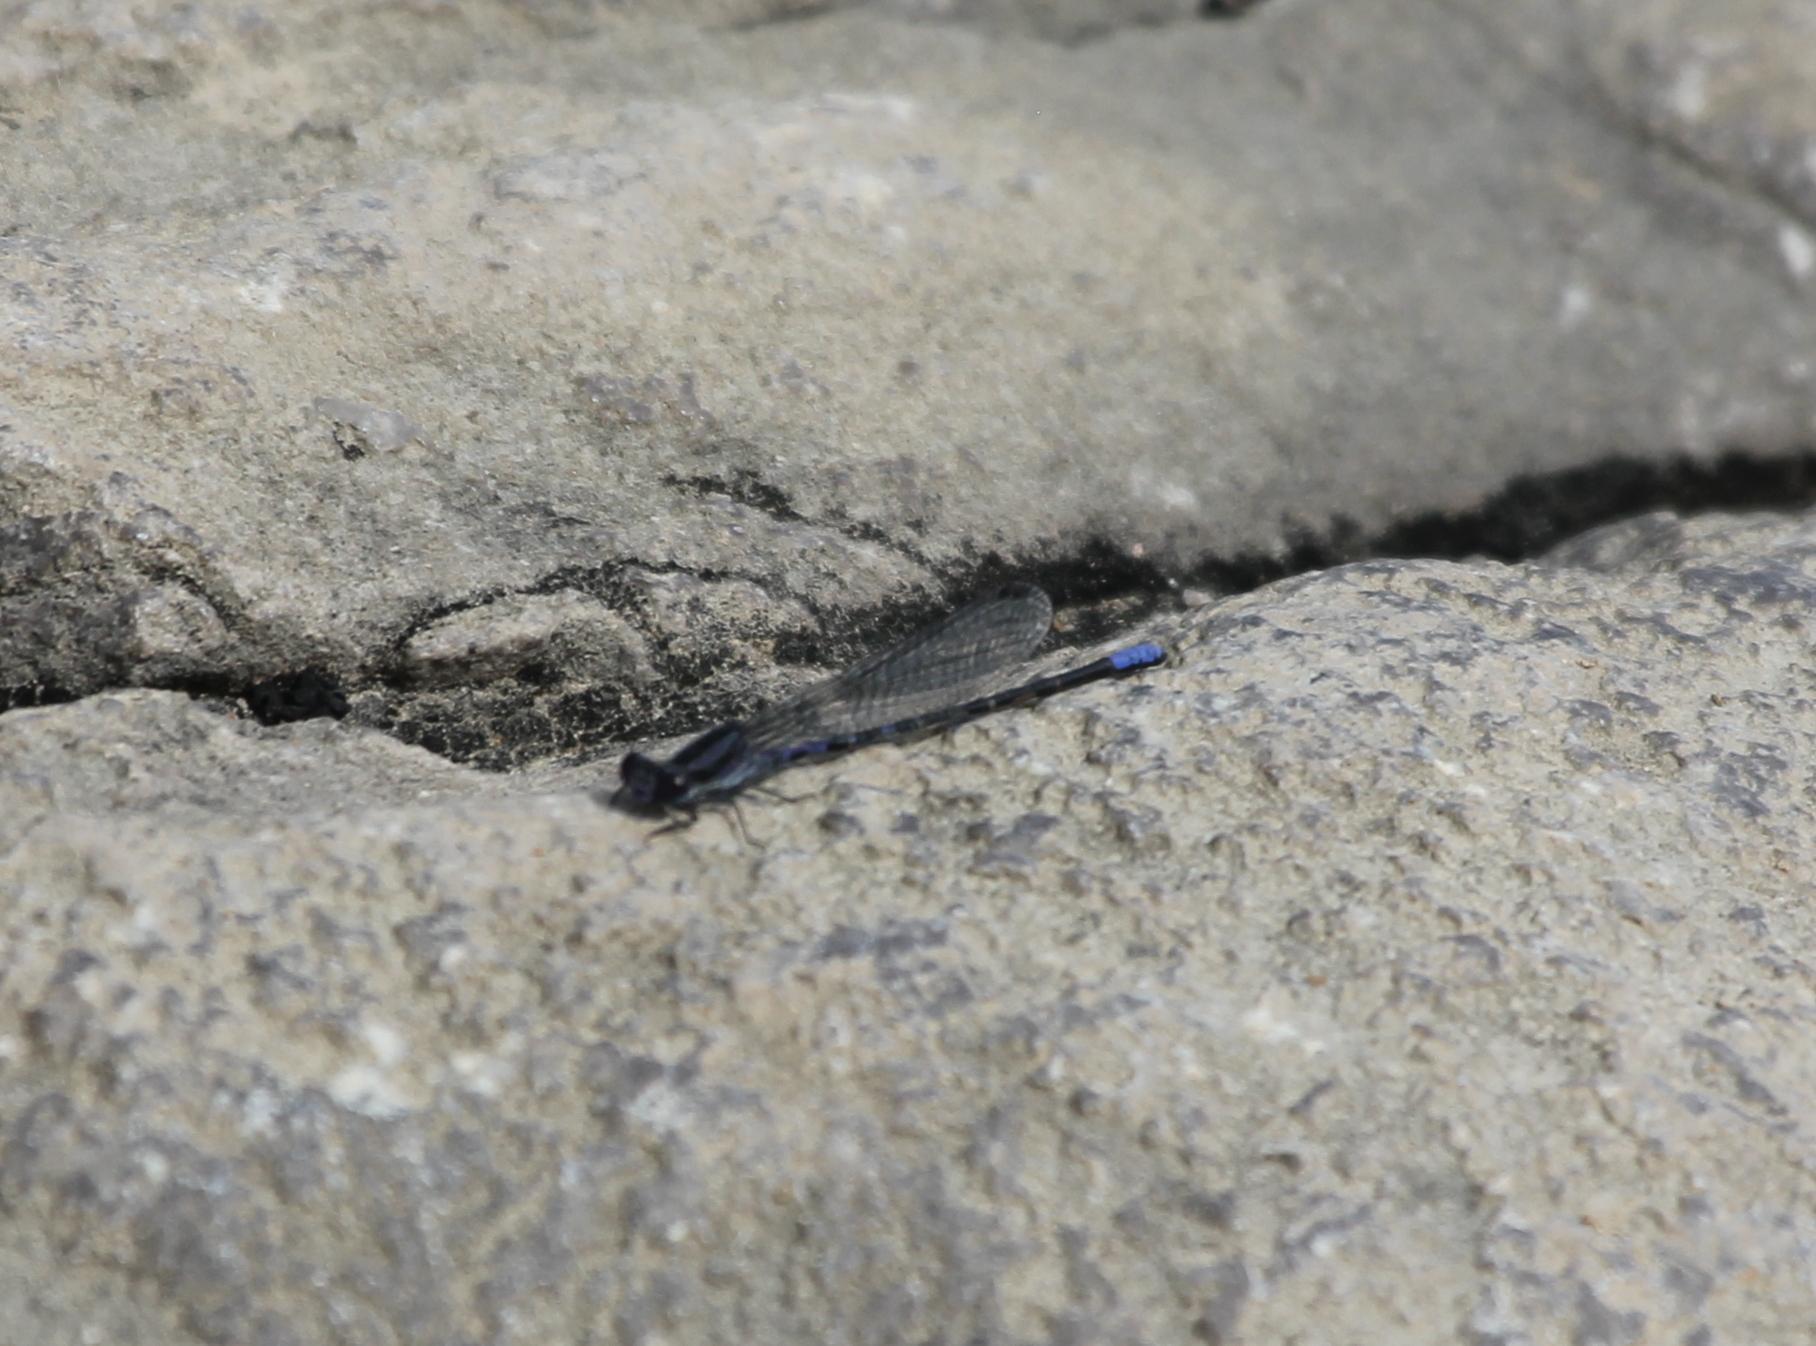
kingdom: Animalia
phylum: Arthropoda
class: Insecta
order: Odonata
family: Coenagrionidae
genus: Argia
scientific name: Argia immunda
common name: Kiowa dancer
